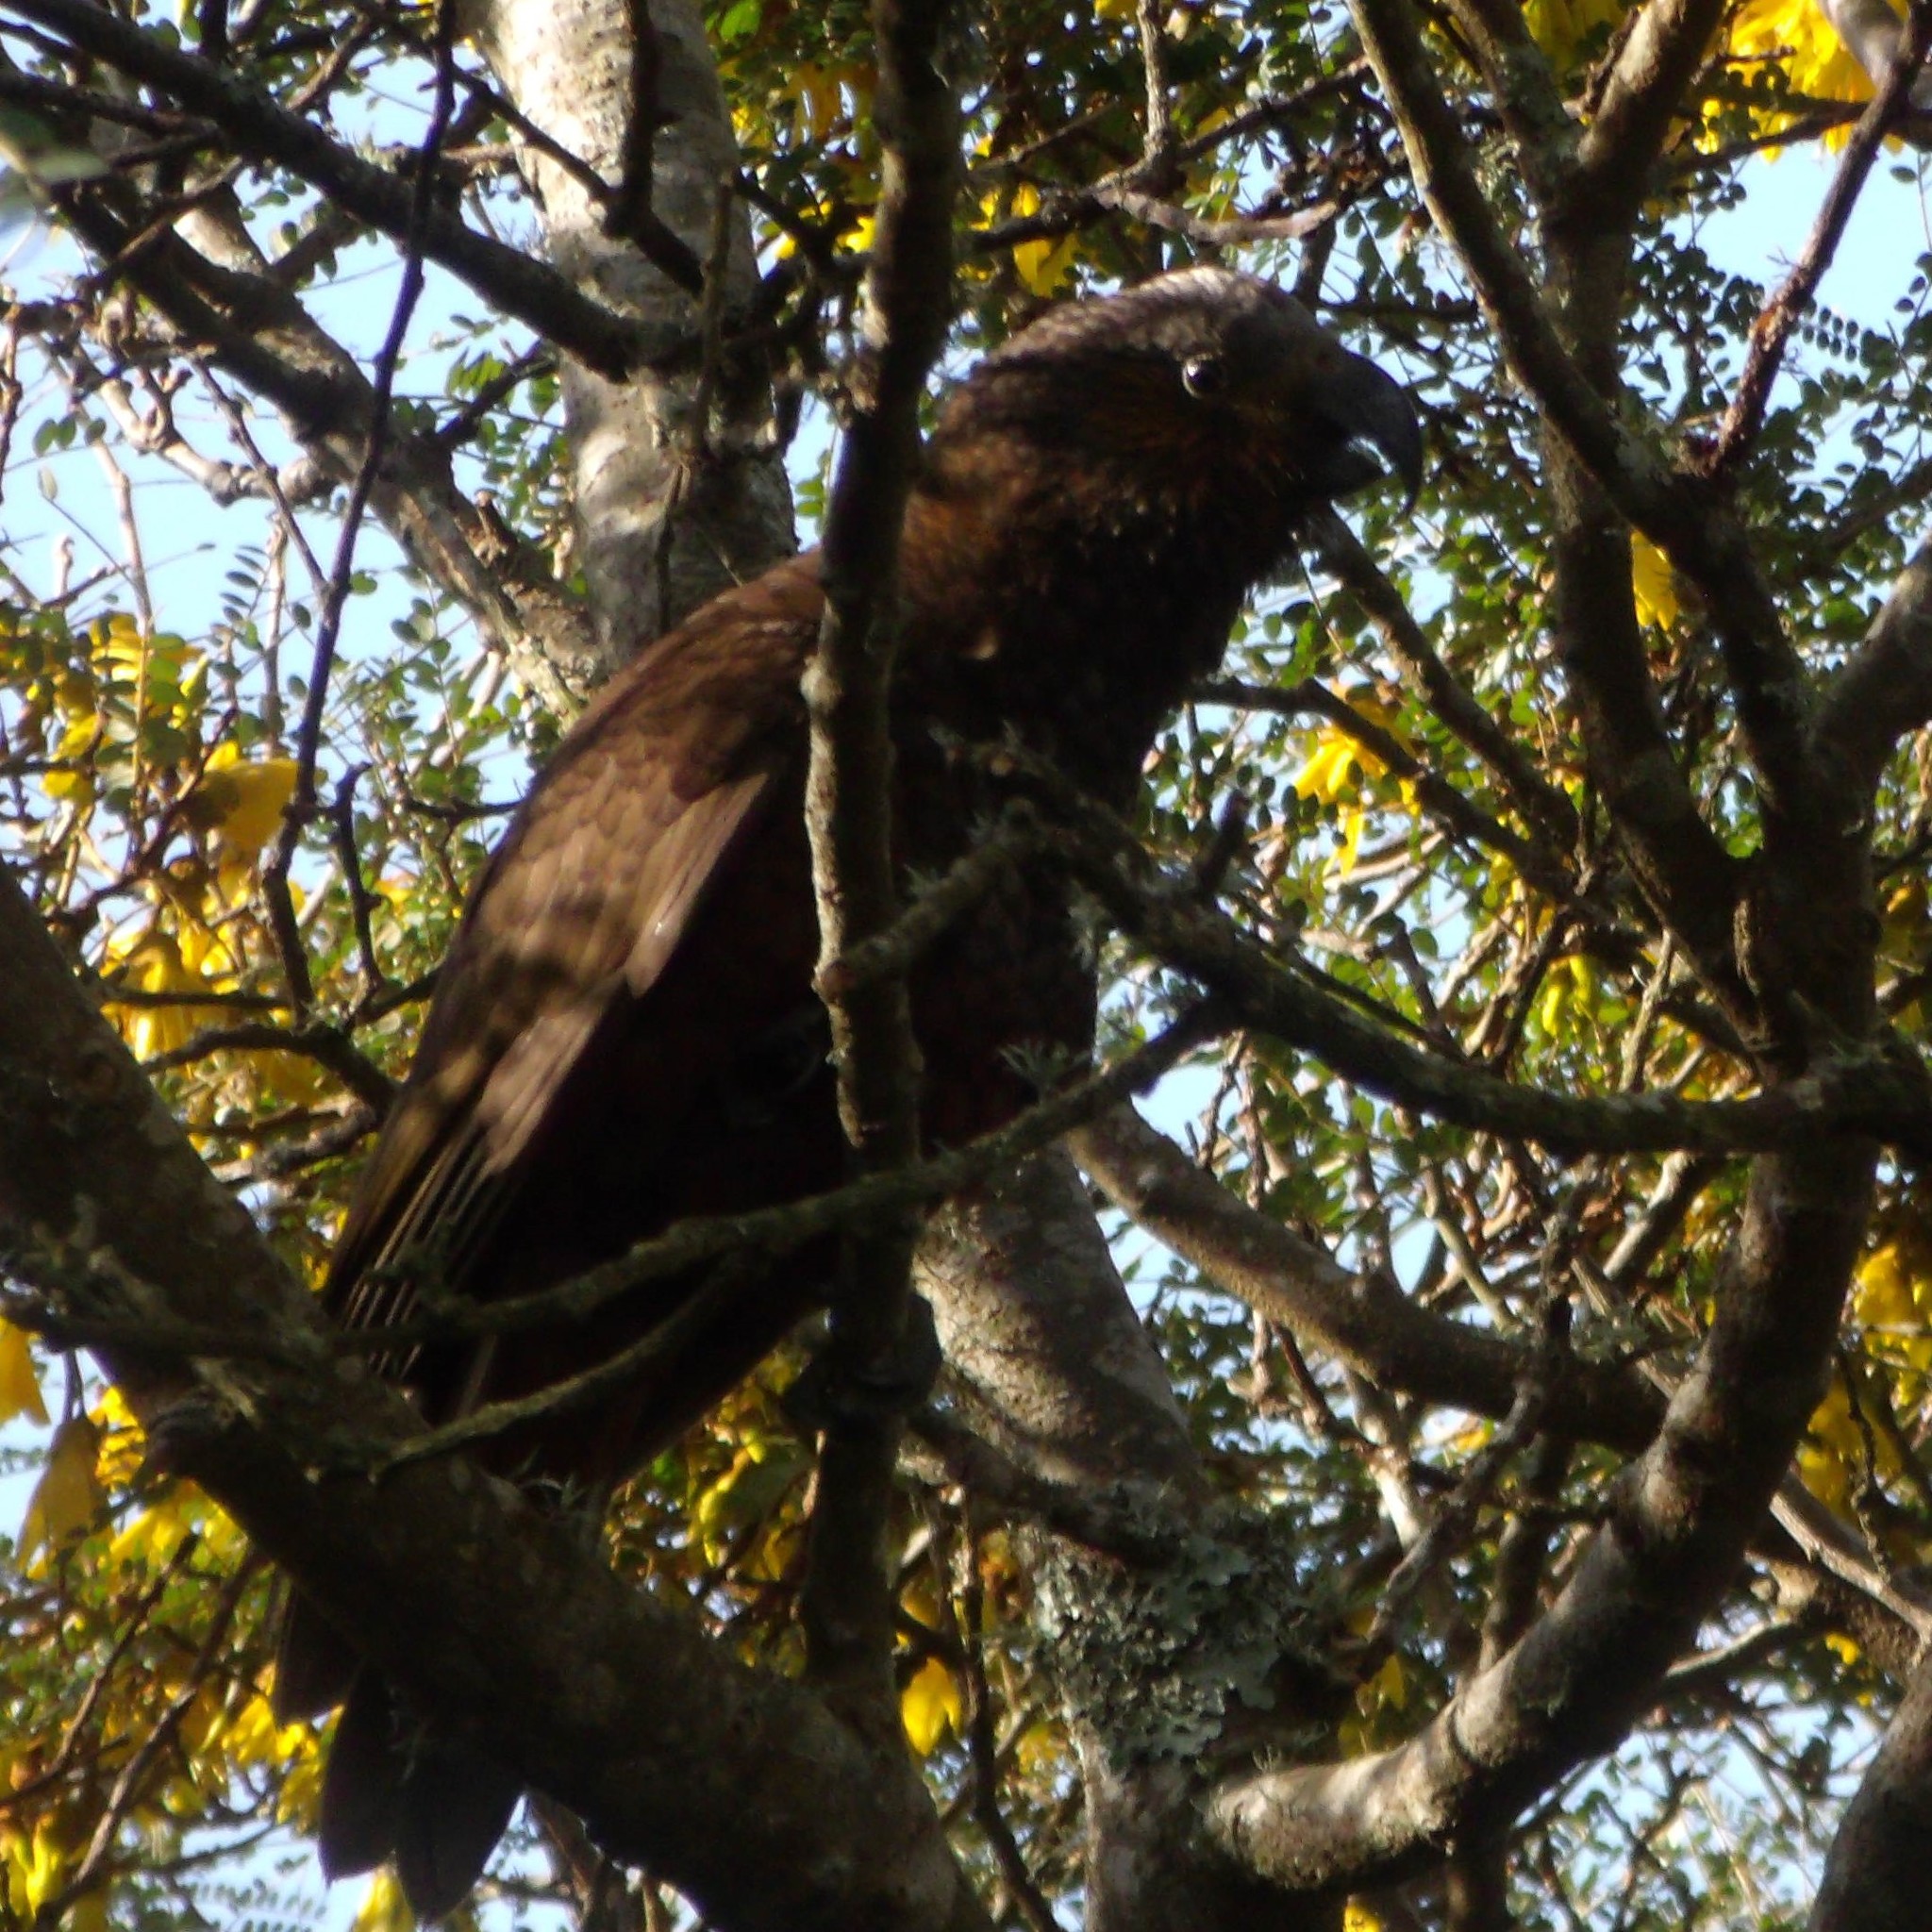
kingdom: Animalia
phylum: Chordata
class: Aves
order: Psittaciformes
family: Psittacidae
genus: Nestor
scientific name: Nestor meridionalis
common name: New zealand kaka
